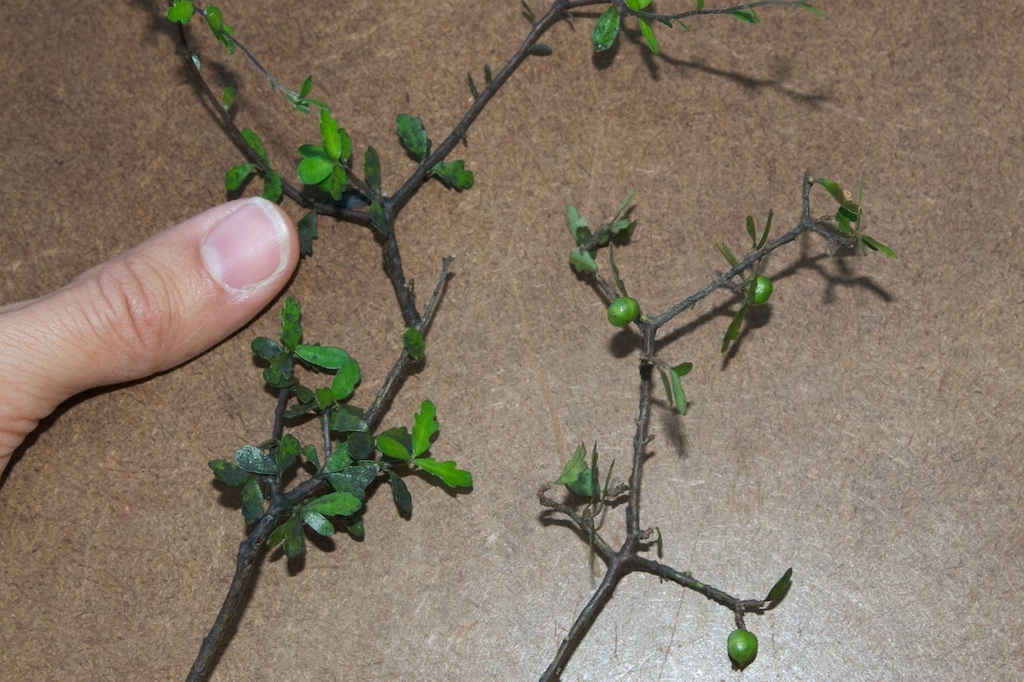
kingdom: Plantae
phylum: Tracheophyta
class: Magnoliopsida
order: Apiales
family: Pittosporaceae
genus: Pittosporum
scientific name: Pittosporum divaricatum
